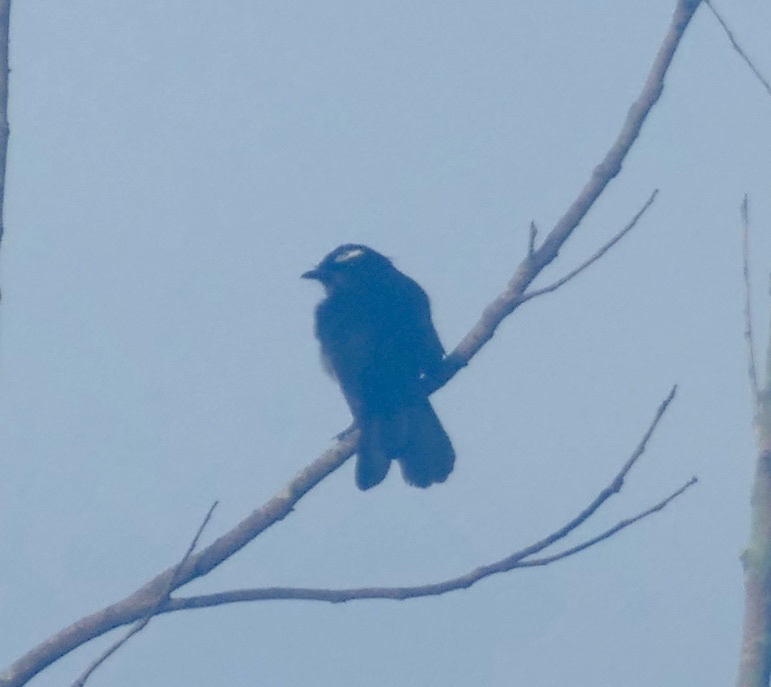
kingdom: Animalia
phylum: Chordata
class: Aves
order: Passeriformes
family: Rhipiduridae
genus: Rhipidura
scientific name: Rhipidura leucophrys
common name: Willie wagtail
